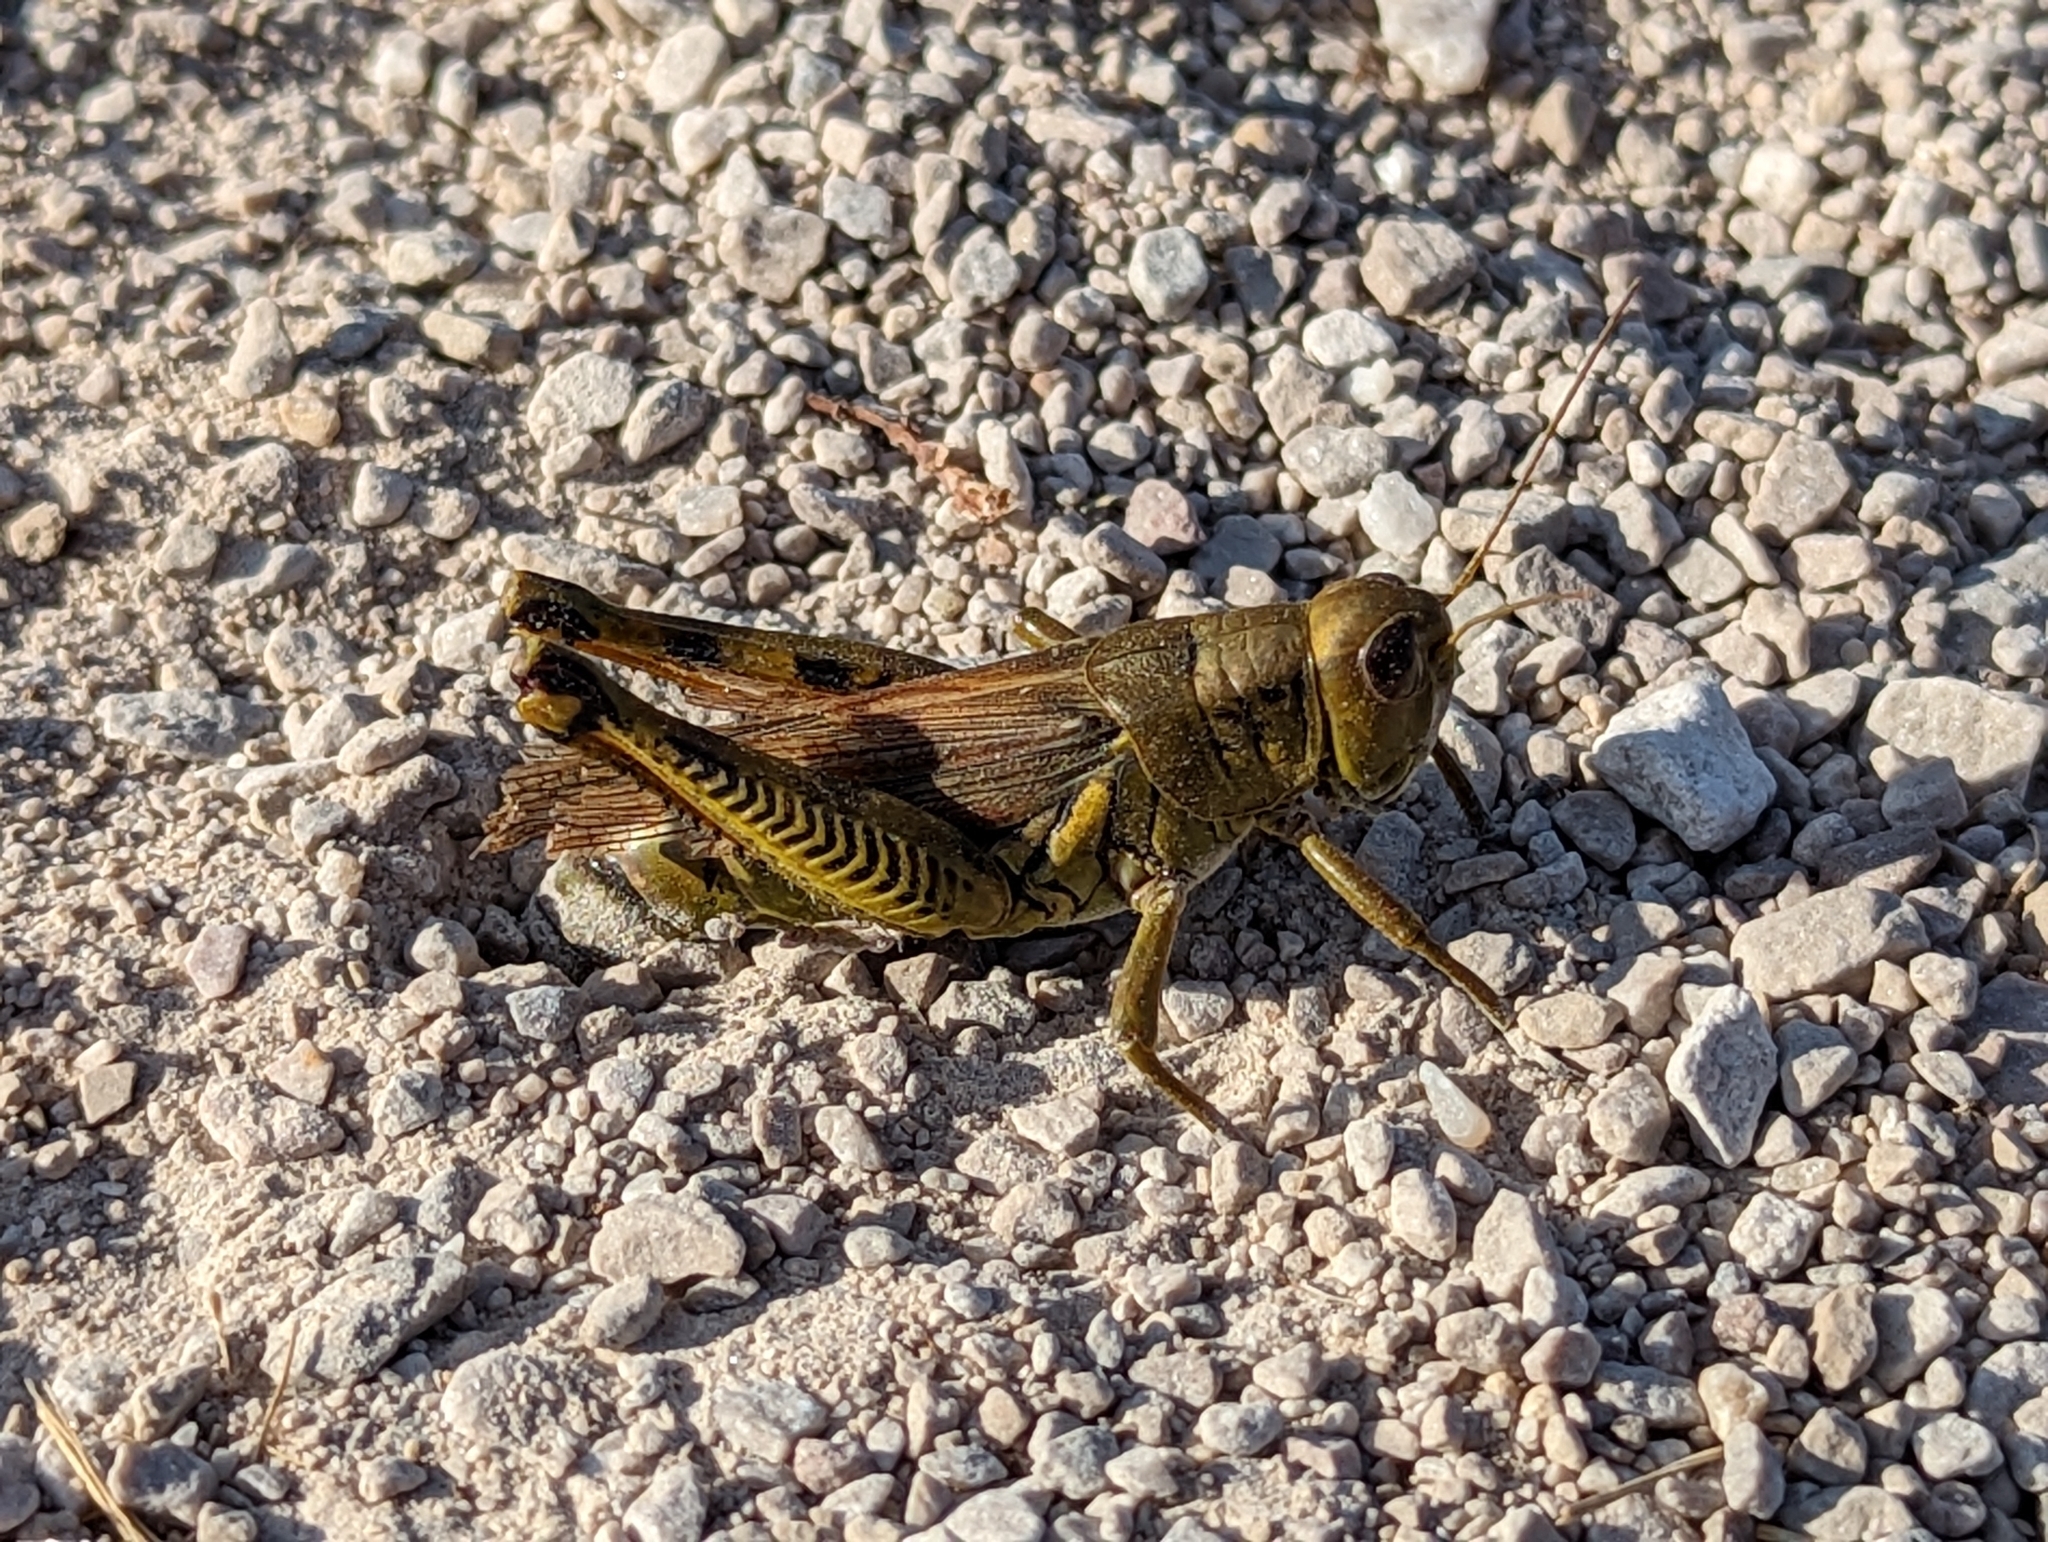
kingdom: Animalia
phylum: Arthropoda
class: Insecta
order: Orthoptera
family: Acrididae
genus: Melanoplus
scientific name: Melanoplus differentialis
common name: Differential grasshopper
